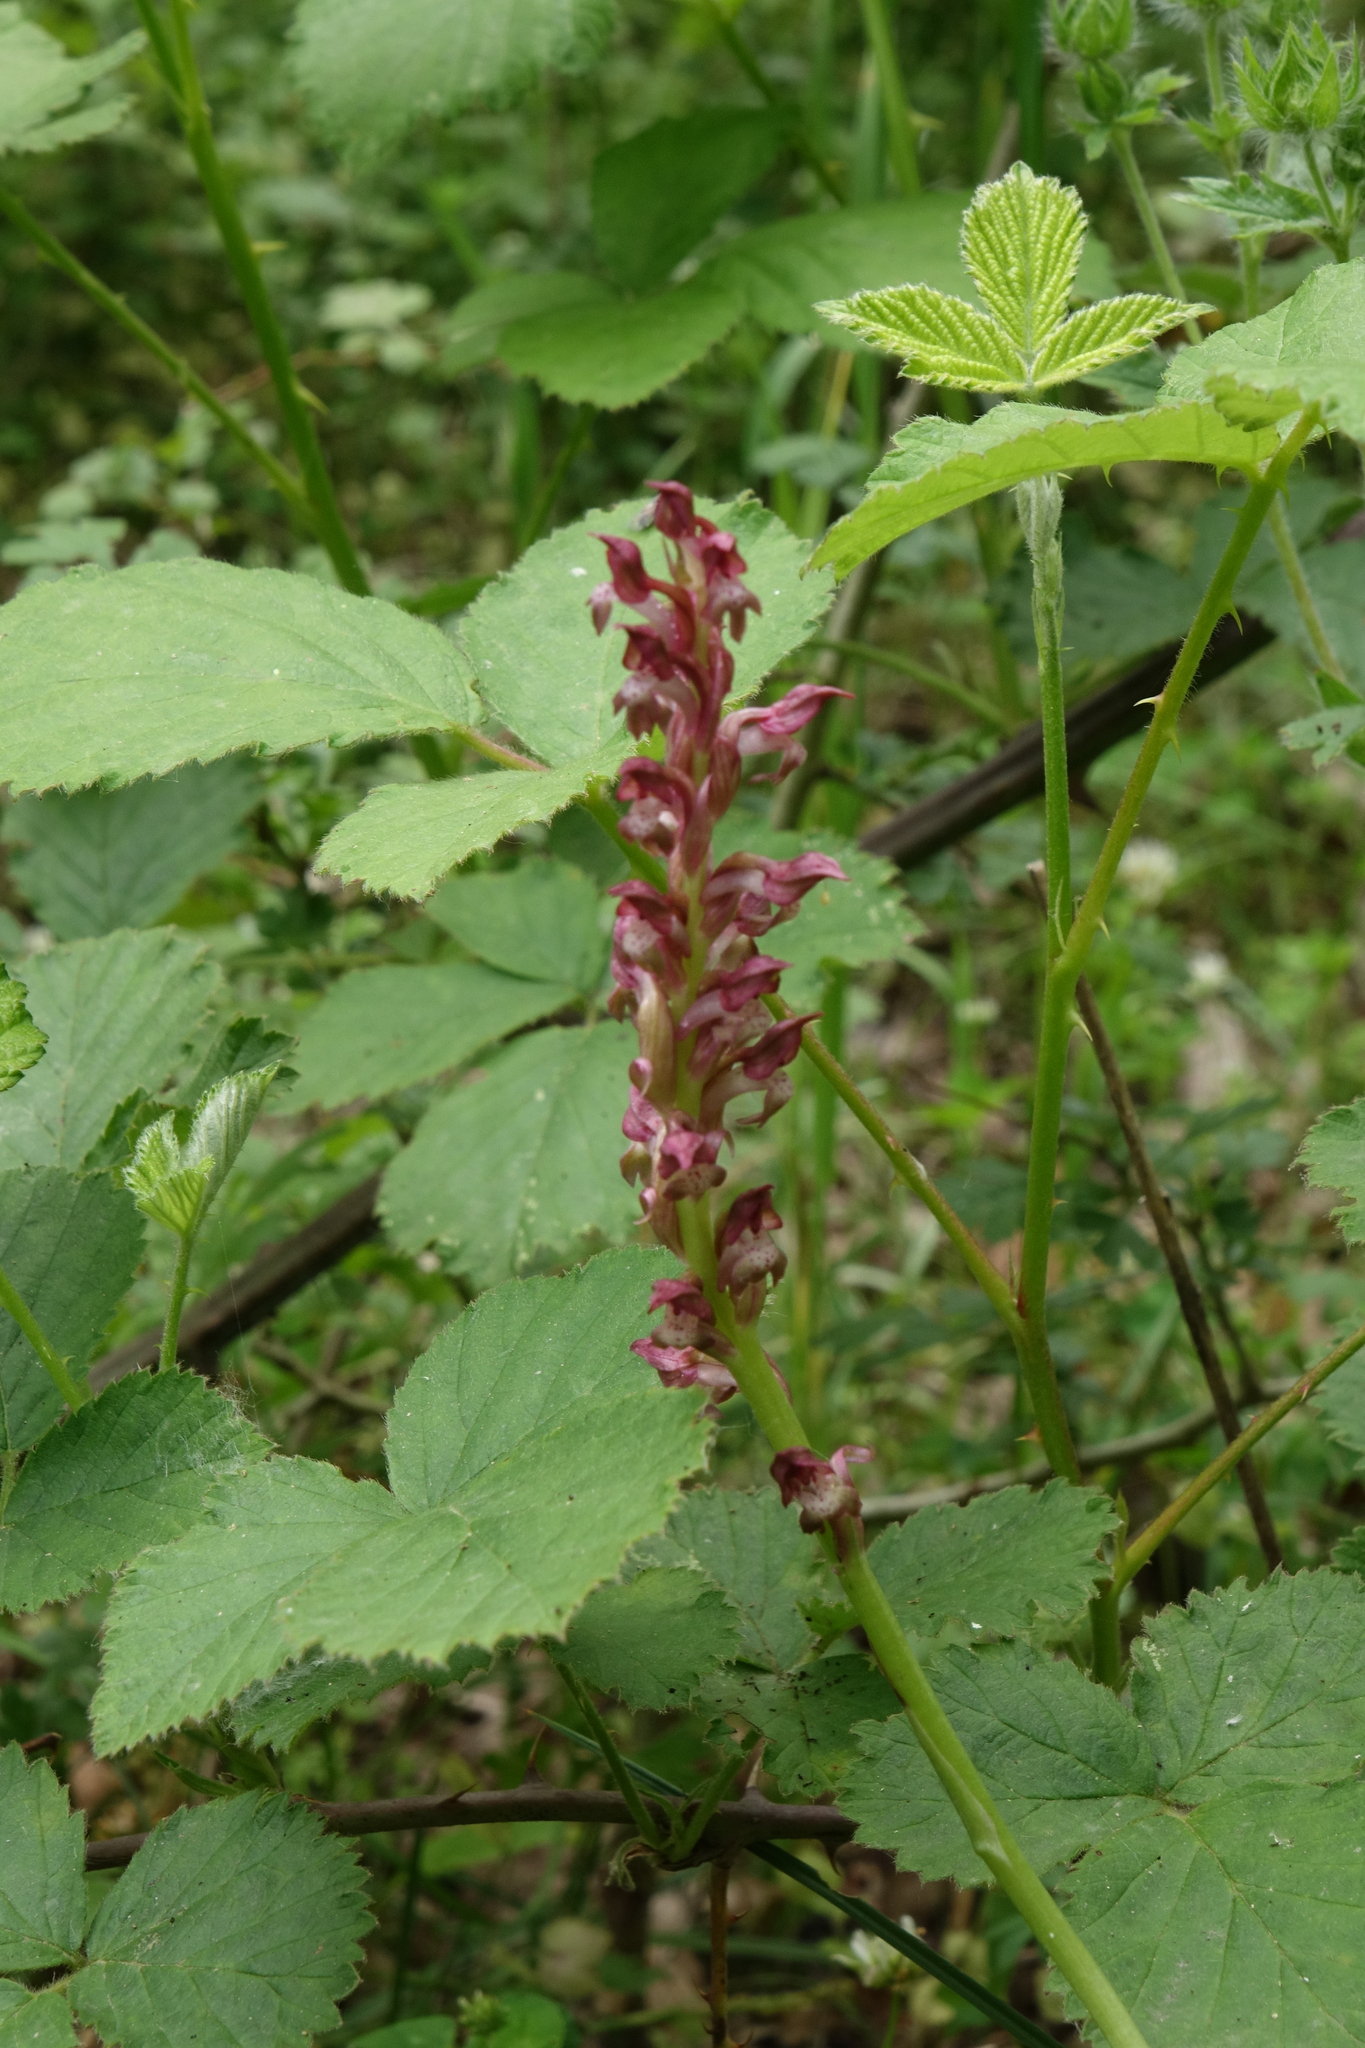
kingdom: Plantae
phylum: Tracheophyta
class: Liliopsida
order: Asparagales
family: Orchidaceae
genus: Anacamptis
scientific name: Anacamptis coriophora
